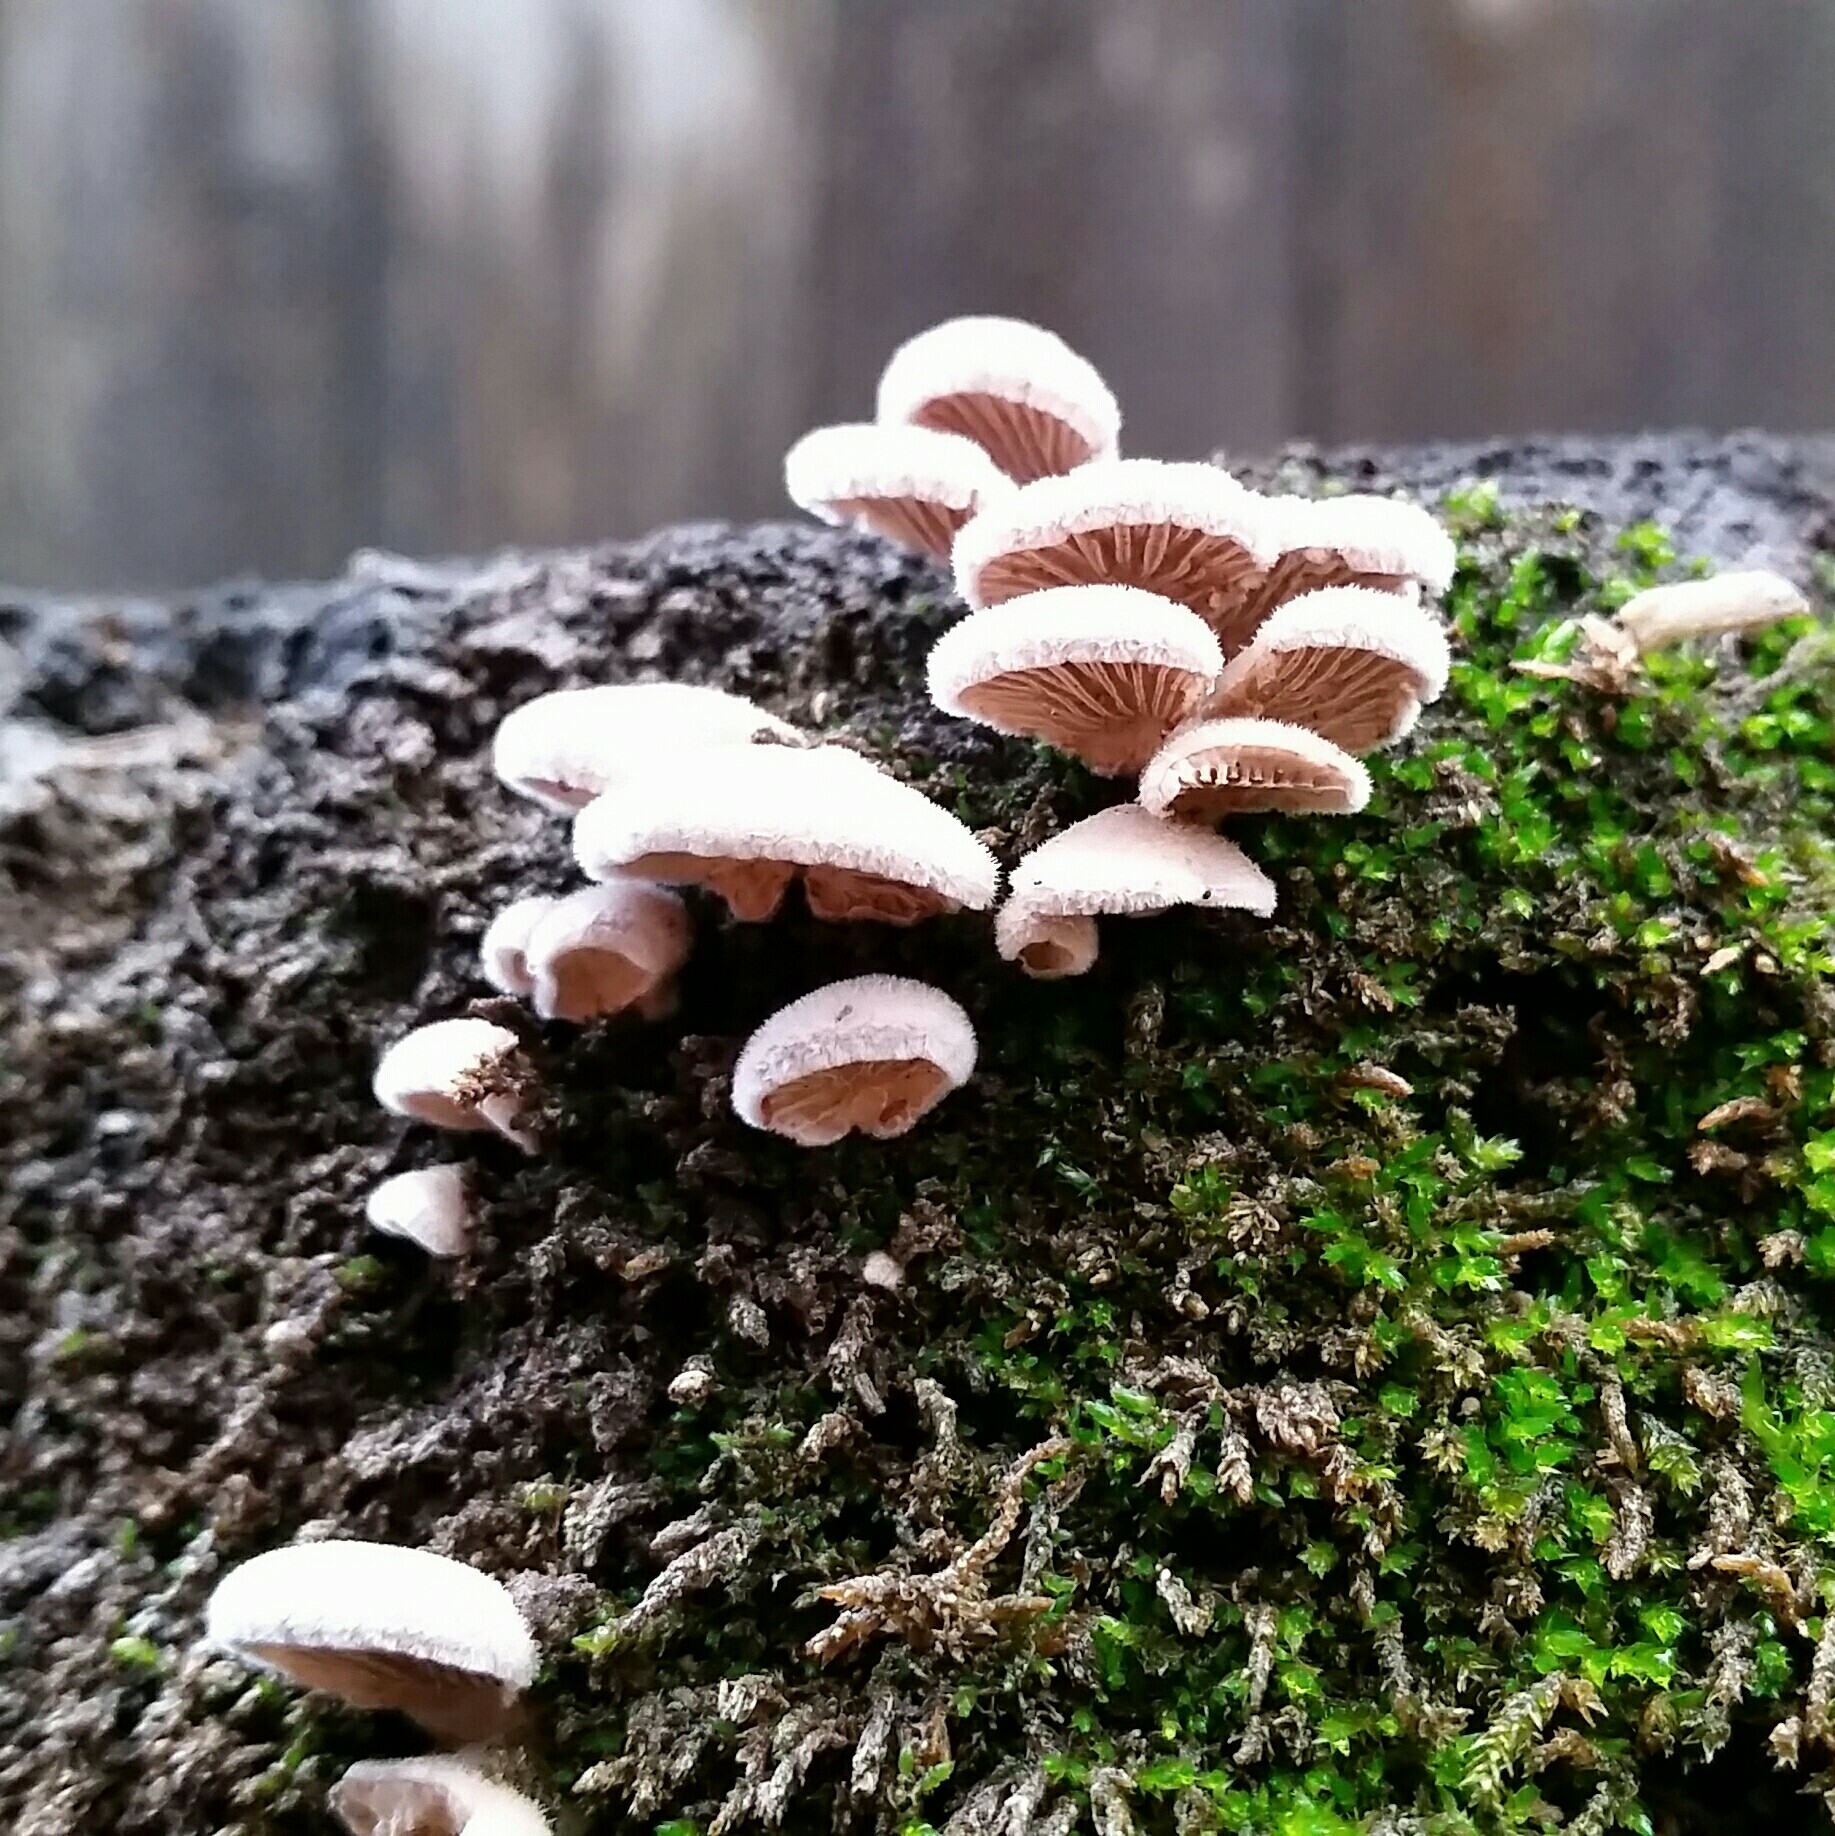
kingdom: Fungi
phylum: Basidiomycota
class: Agaricomycetes
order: Agaricales
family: Schizophyllaceae
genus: Schizophyllum
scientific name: Schizophyllum commune
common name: Common porecrust
